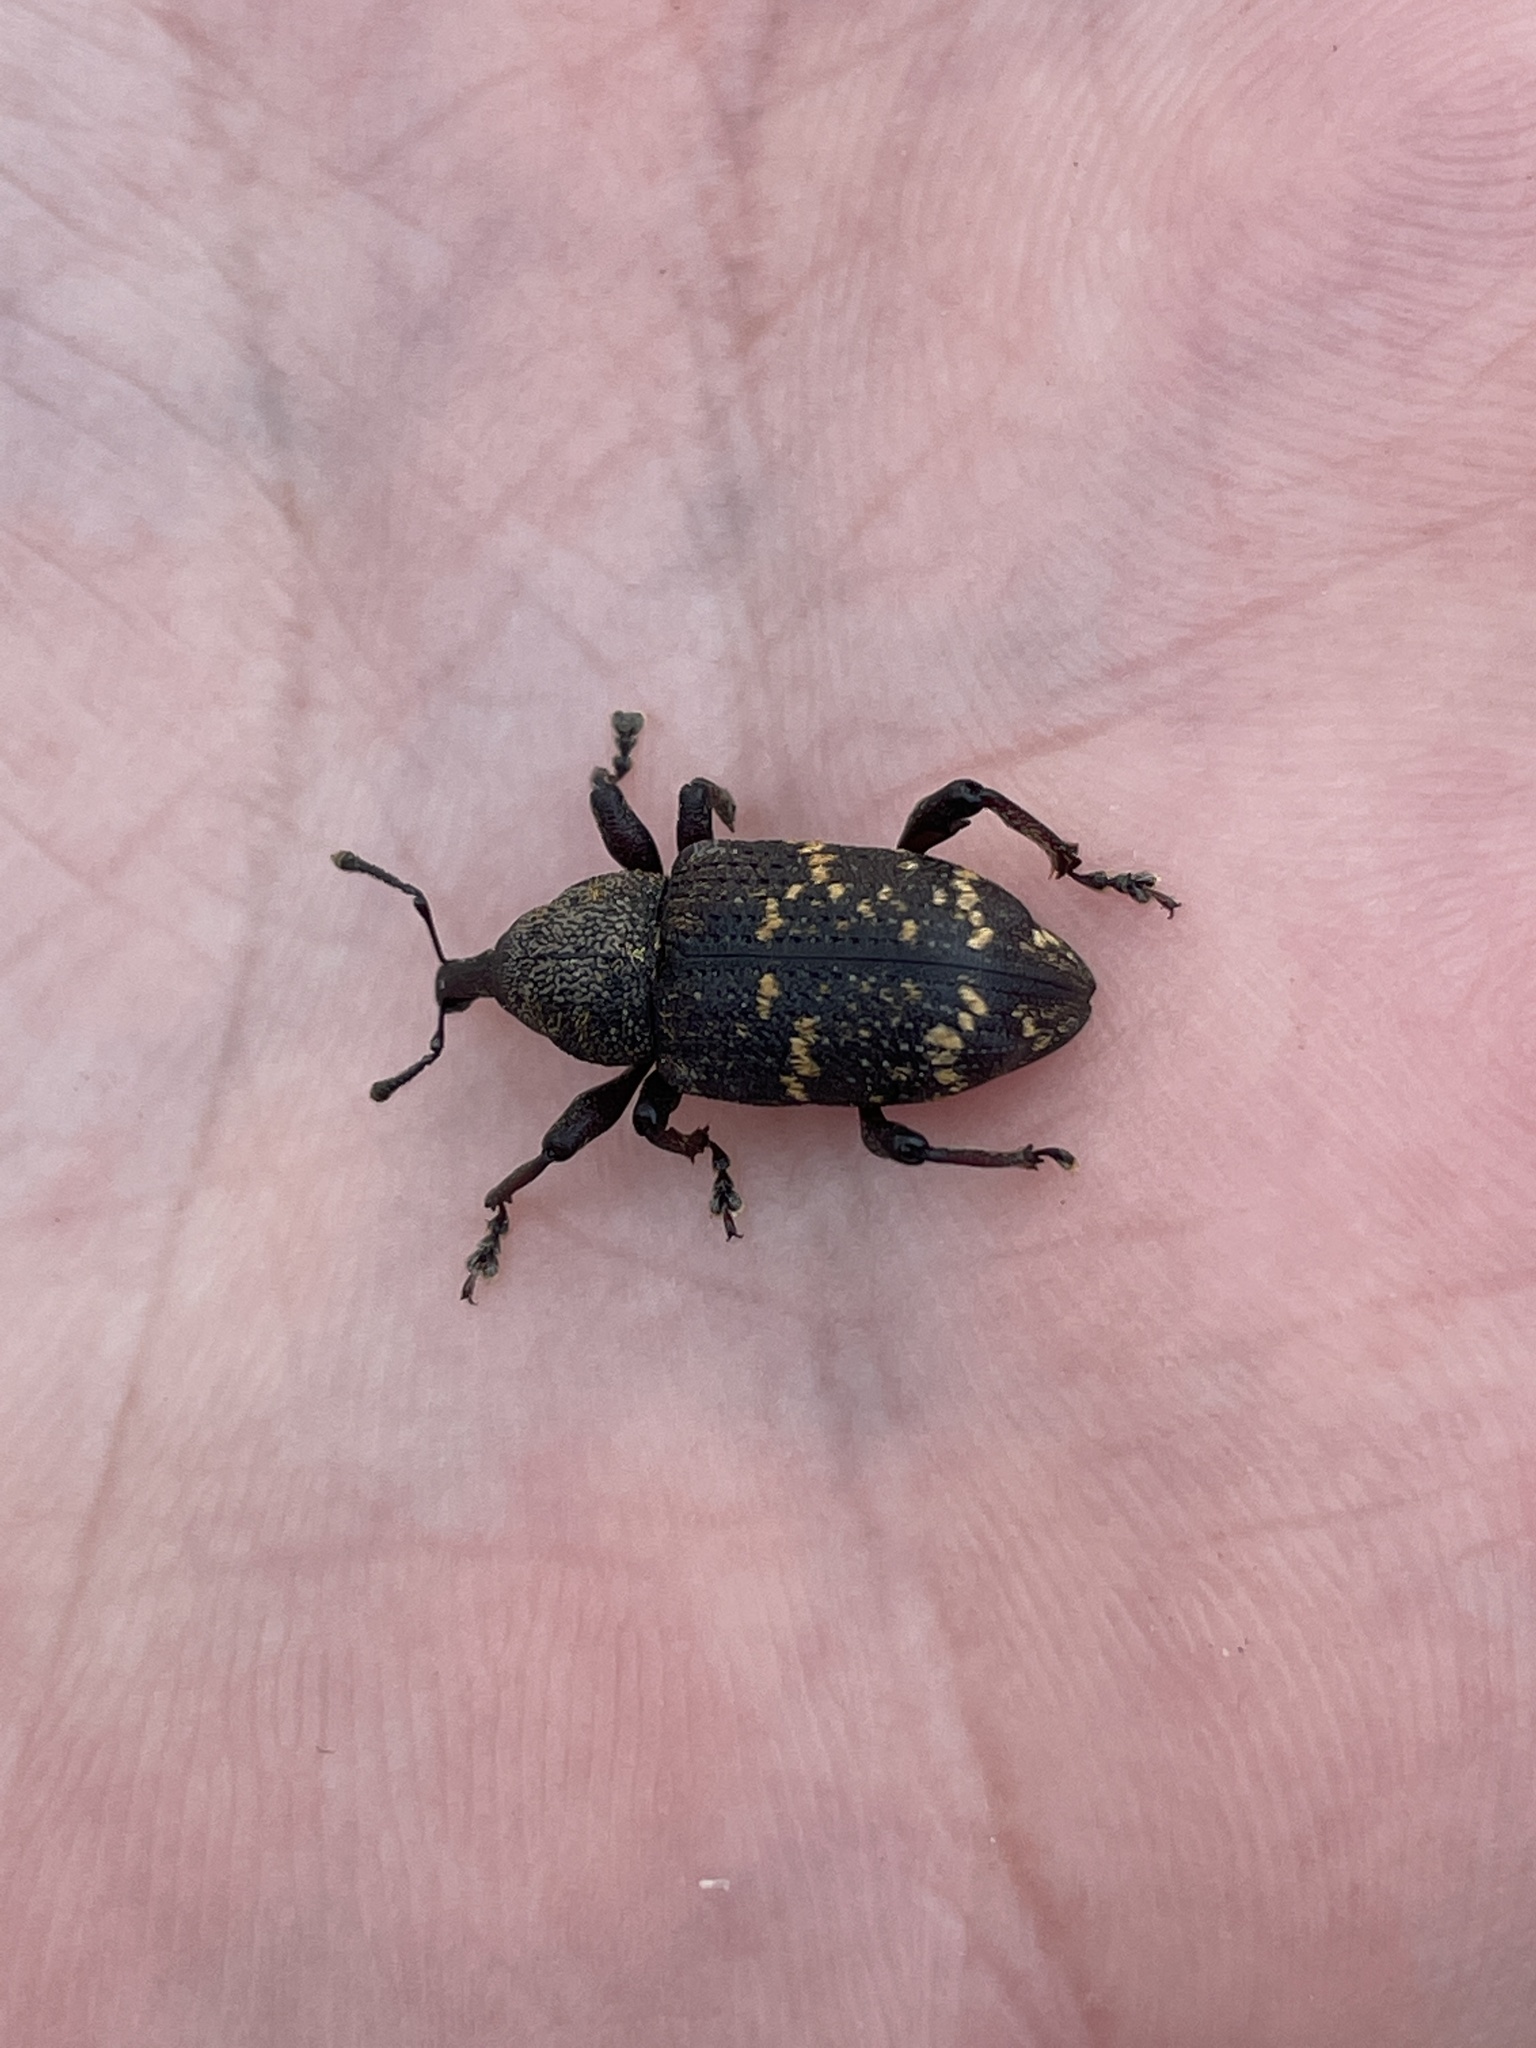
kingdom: Animalia
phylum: Arthropoda
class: Insecta
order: Coleoptera
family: Curculionidae
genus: Hylobius
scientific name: Hylobius abietis
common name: Large pine weevil
